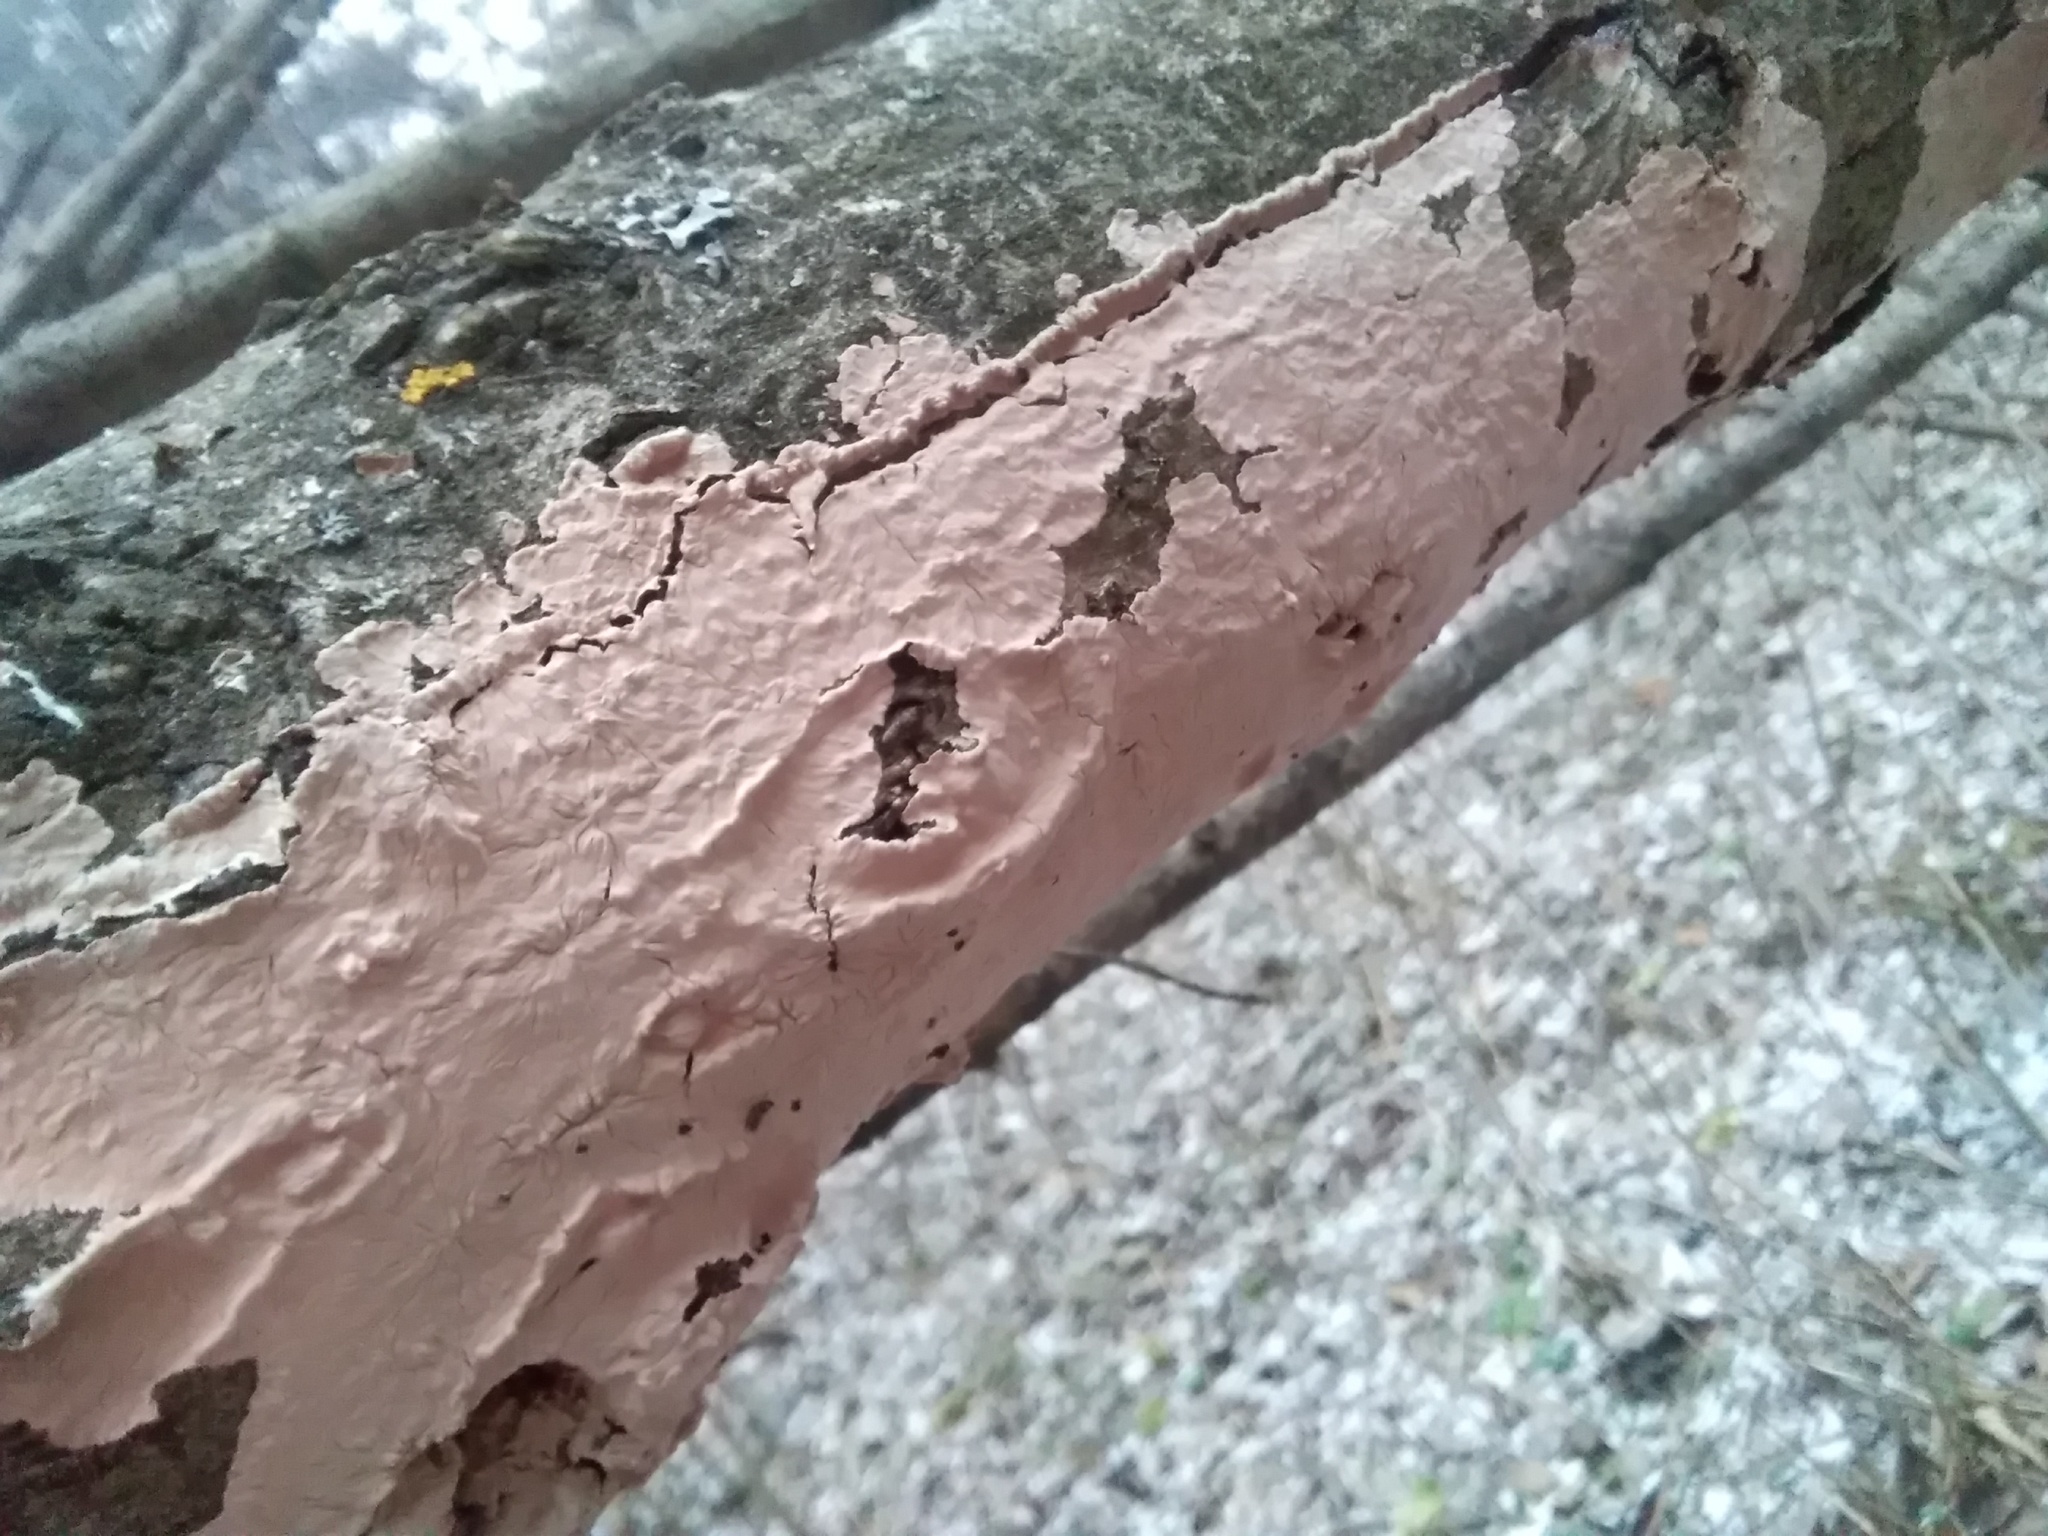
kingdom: Fungi
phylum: Basidiomycota
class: Agaricomycetes
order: Corticiales
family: Corticiaceae
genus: Corticium
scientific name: Corticium roseum
